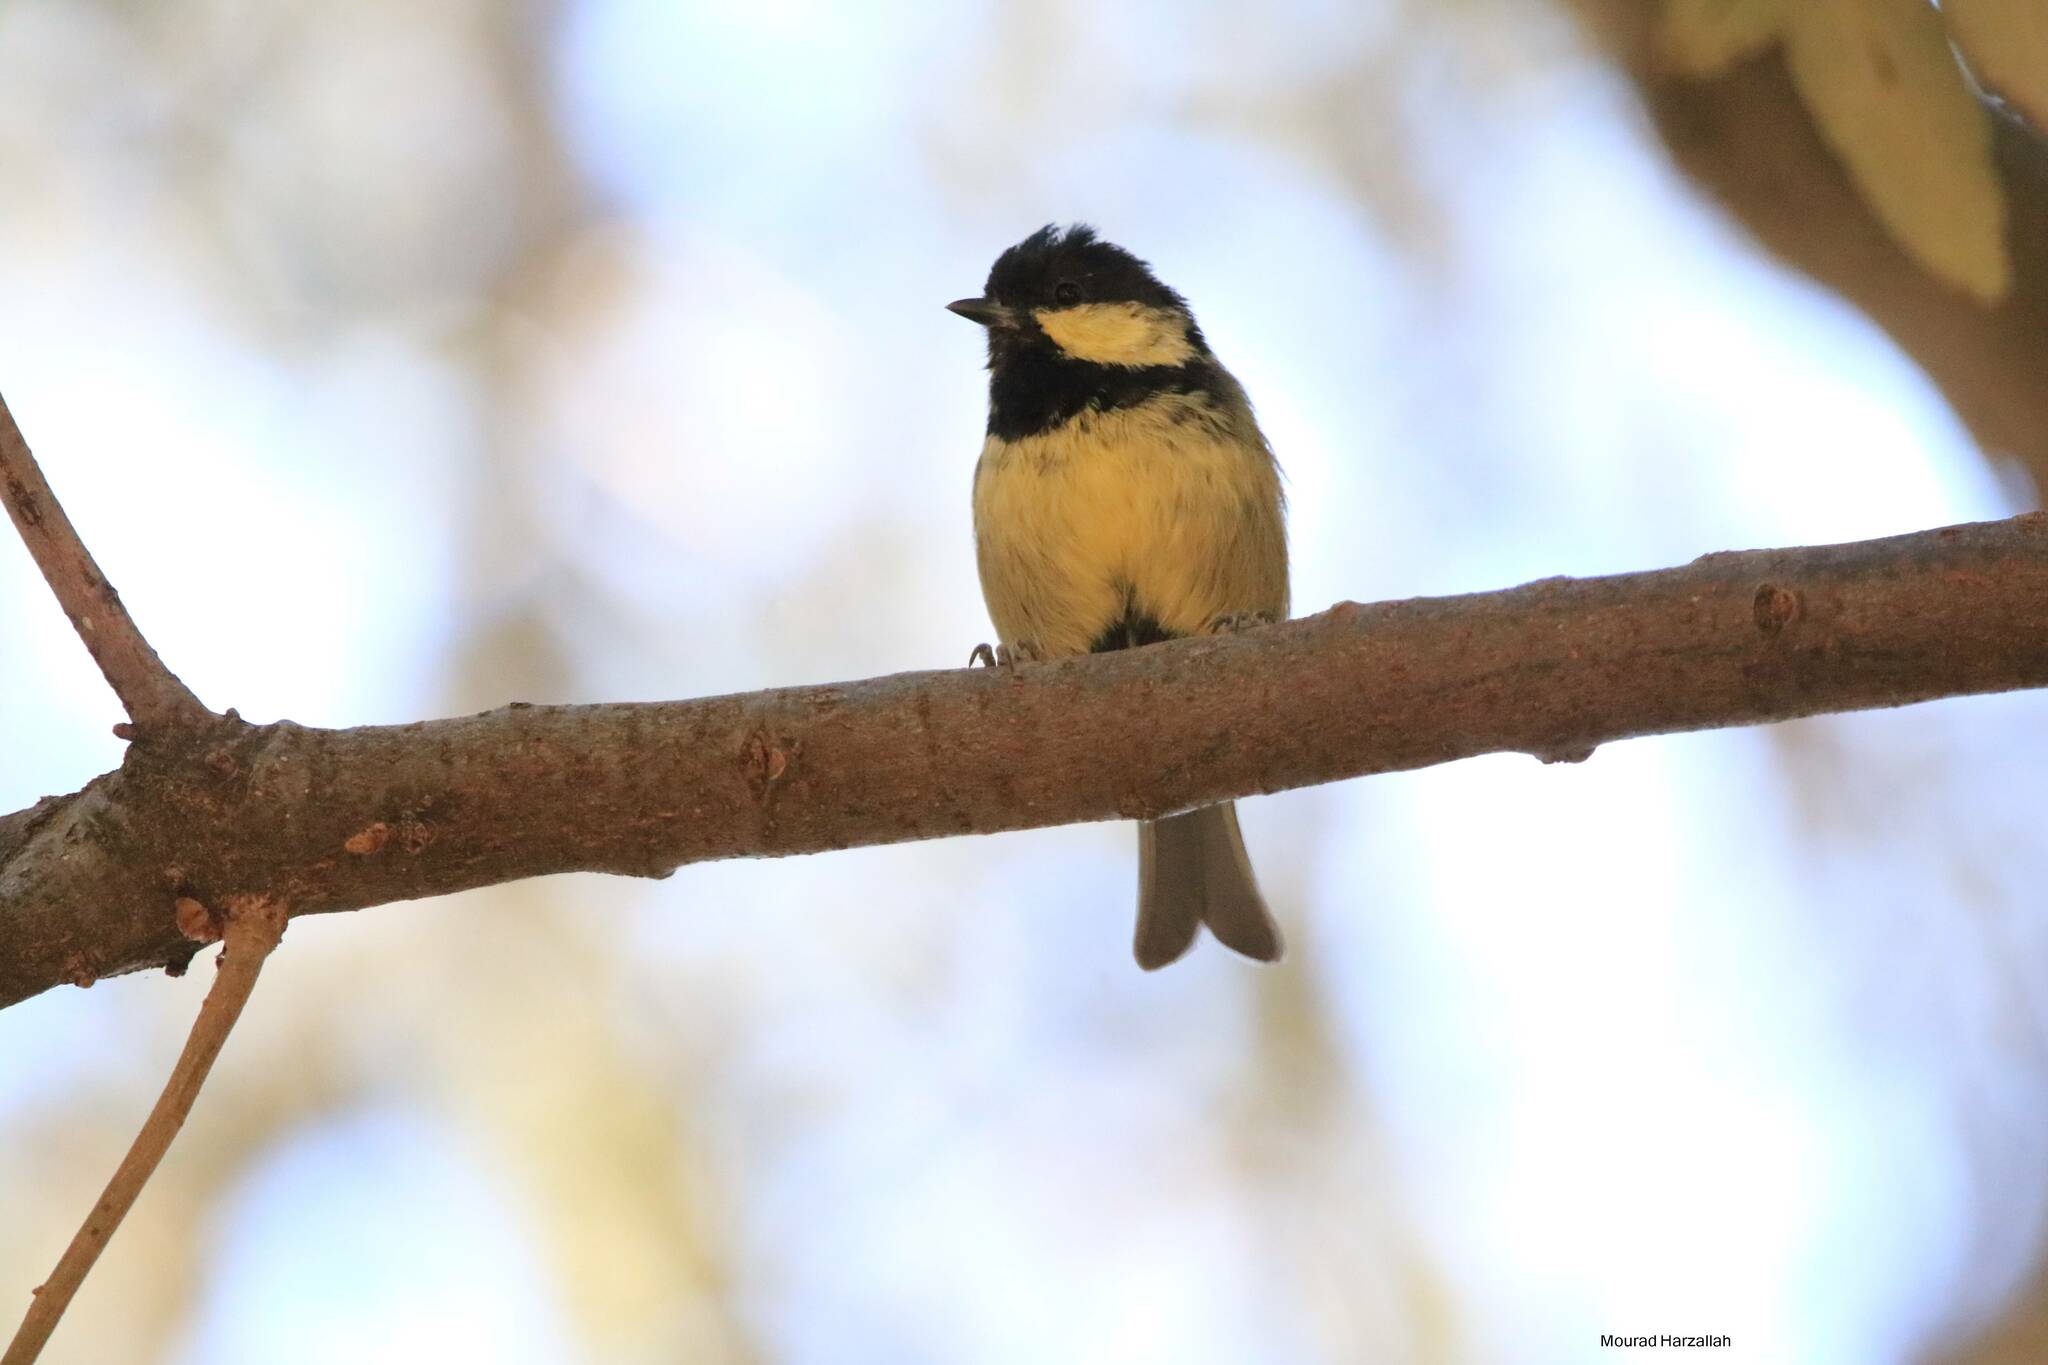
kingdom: Animalia
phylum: Chordata
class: Aves
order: Passeriformes
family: Paridae
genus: Periparus
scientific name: Periparus ater
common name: Coal tit
